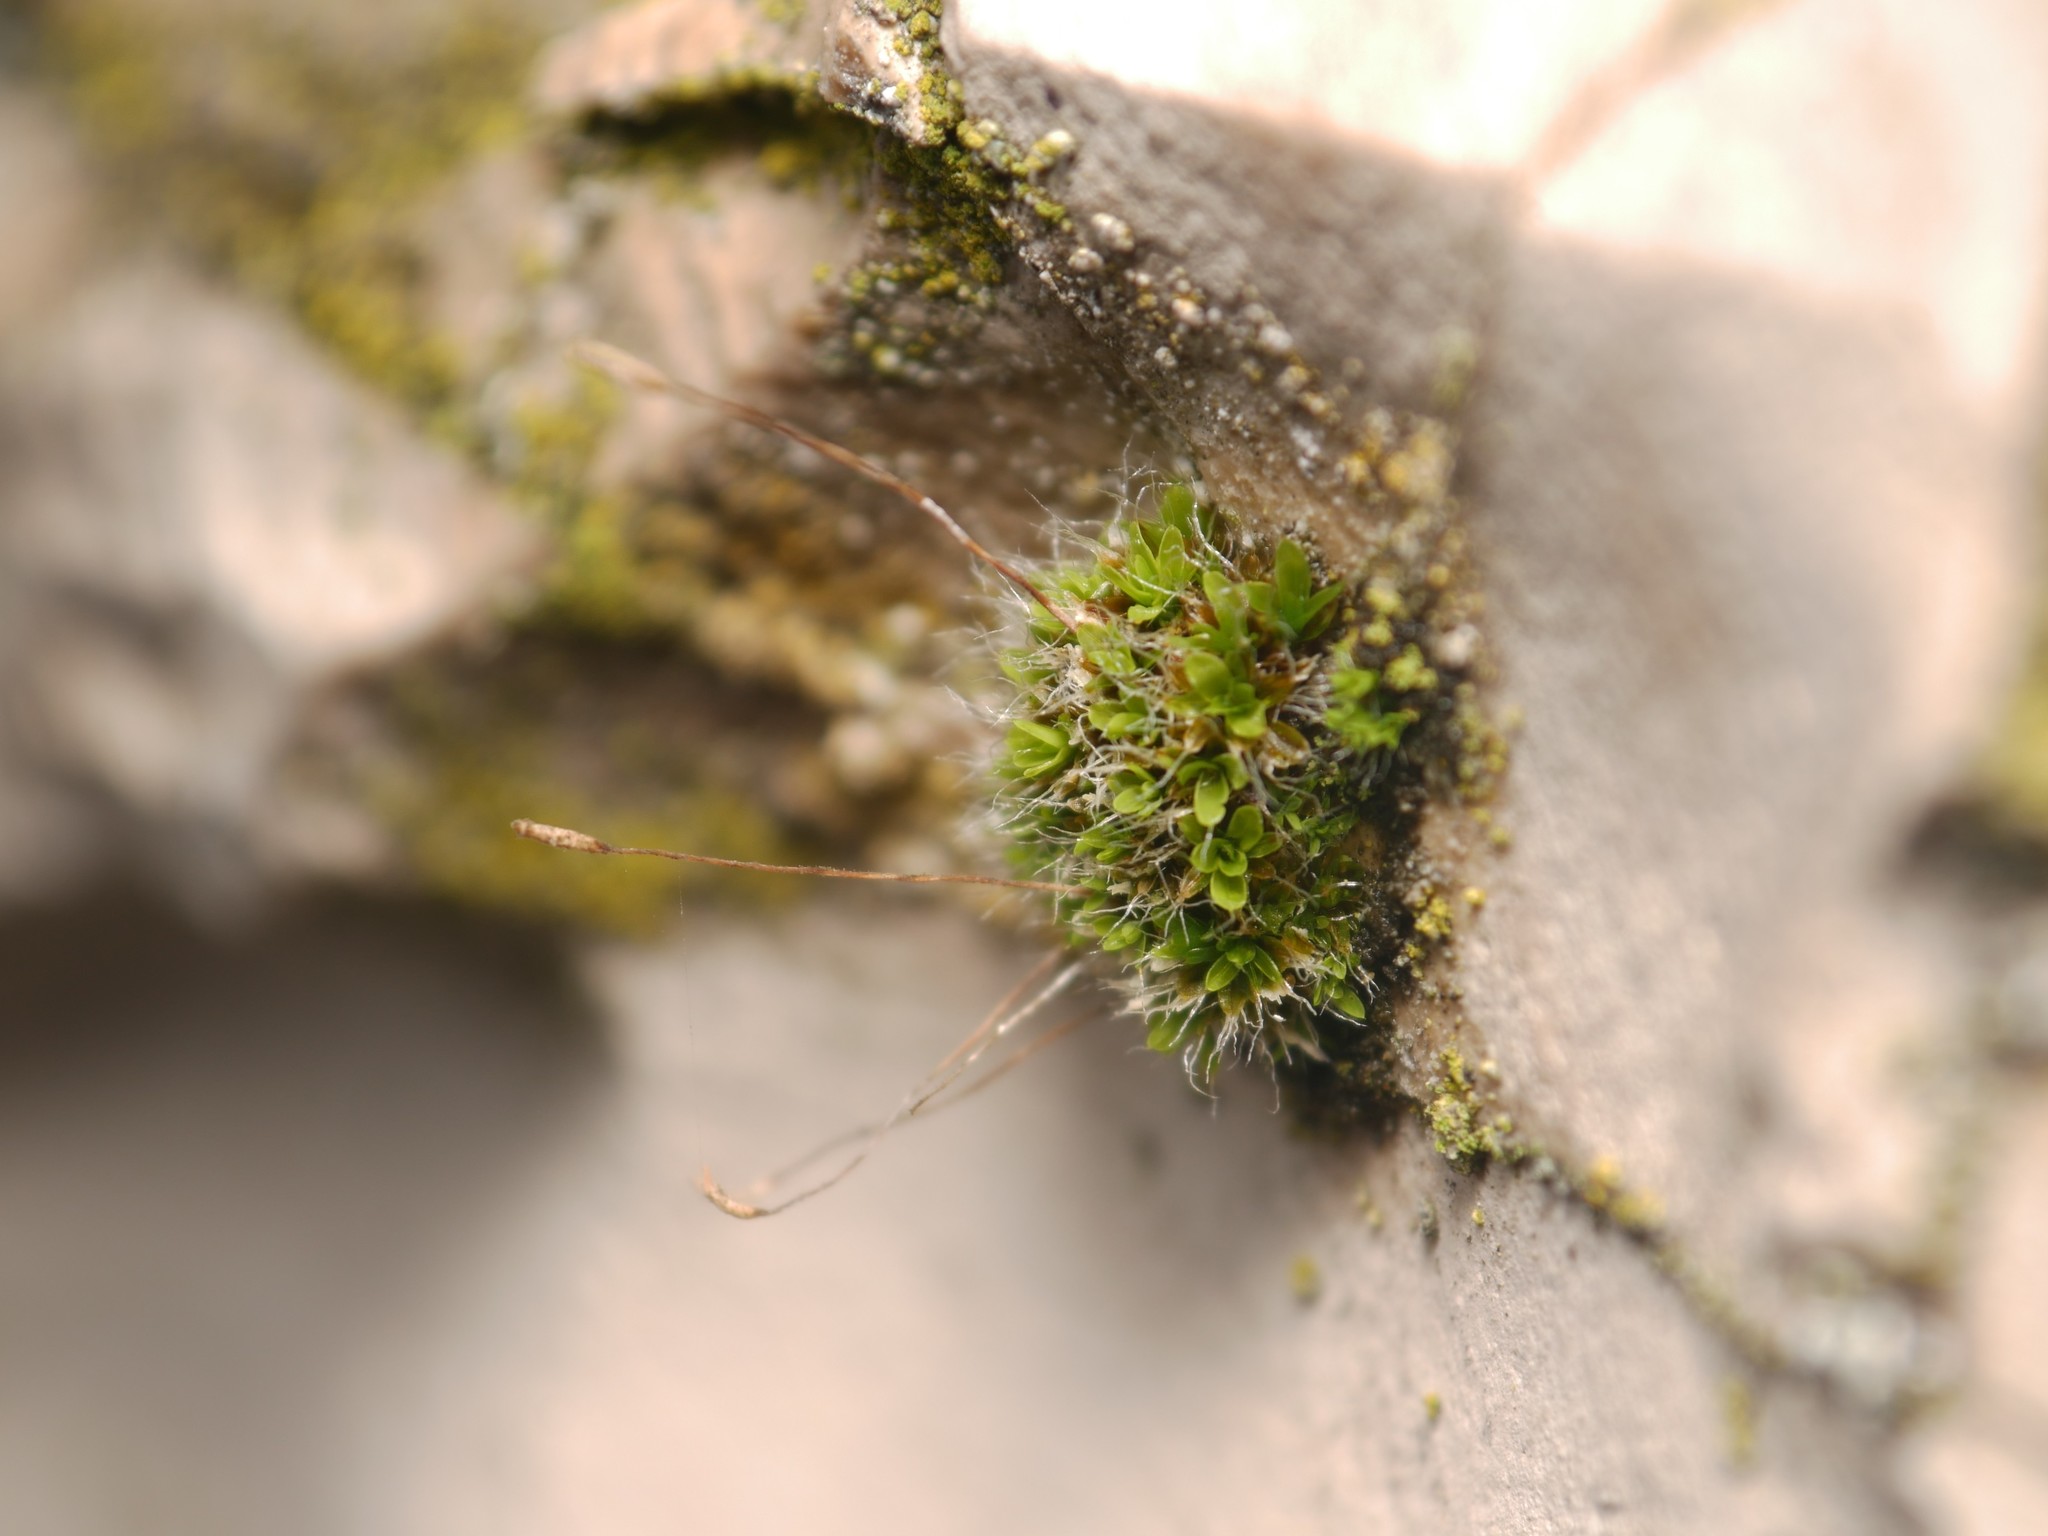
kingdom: Plantae
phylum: Bryophyta
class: Bryopsida
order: Pottiales
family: Pottiaceae
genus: Tortula
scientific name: Tortula muralis
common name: Wall screw-moss
